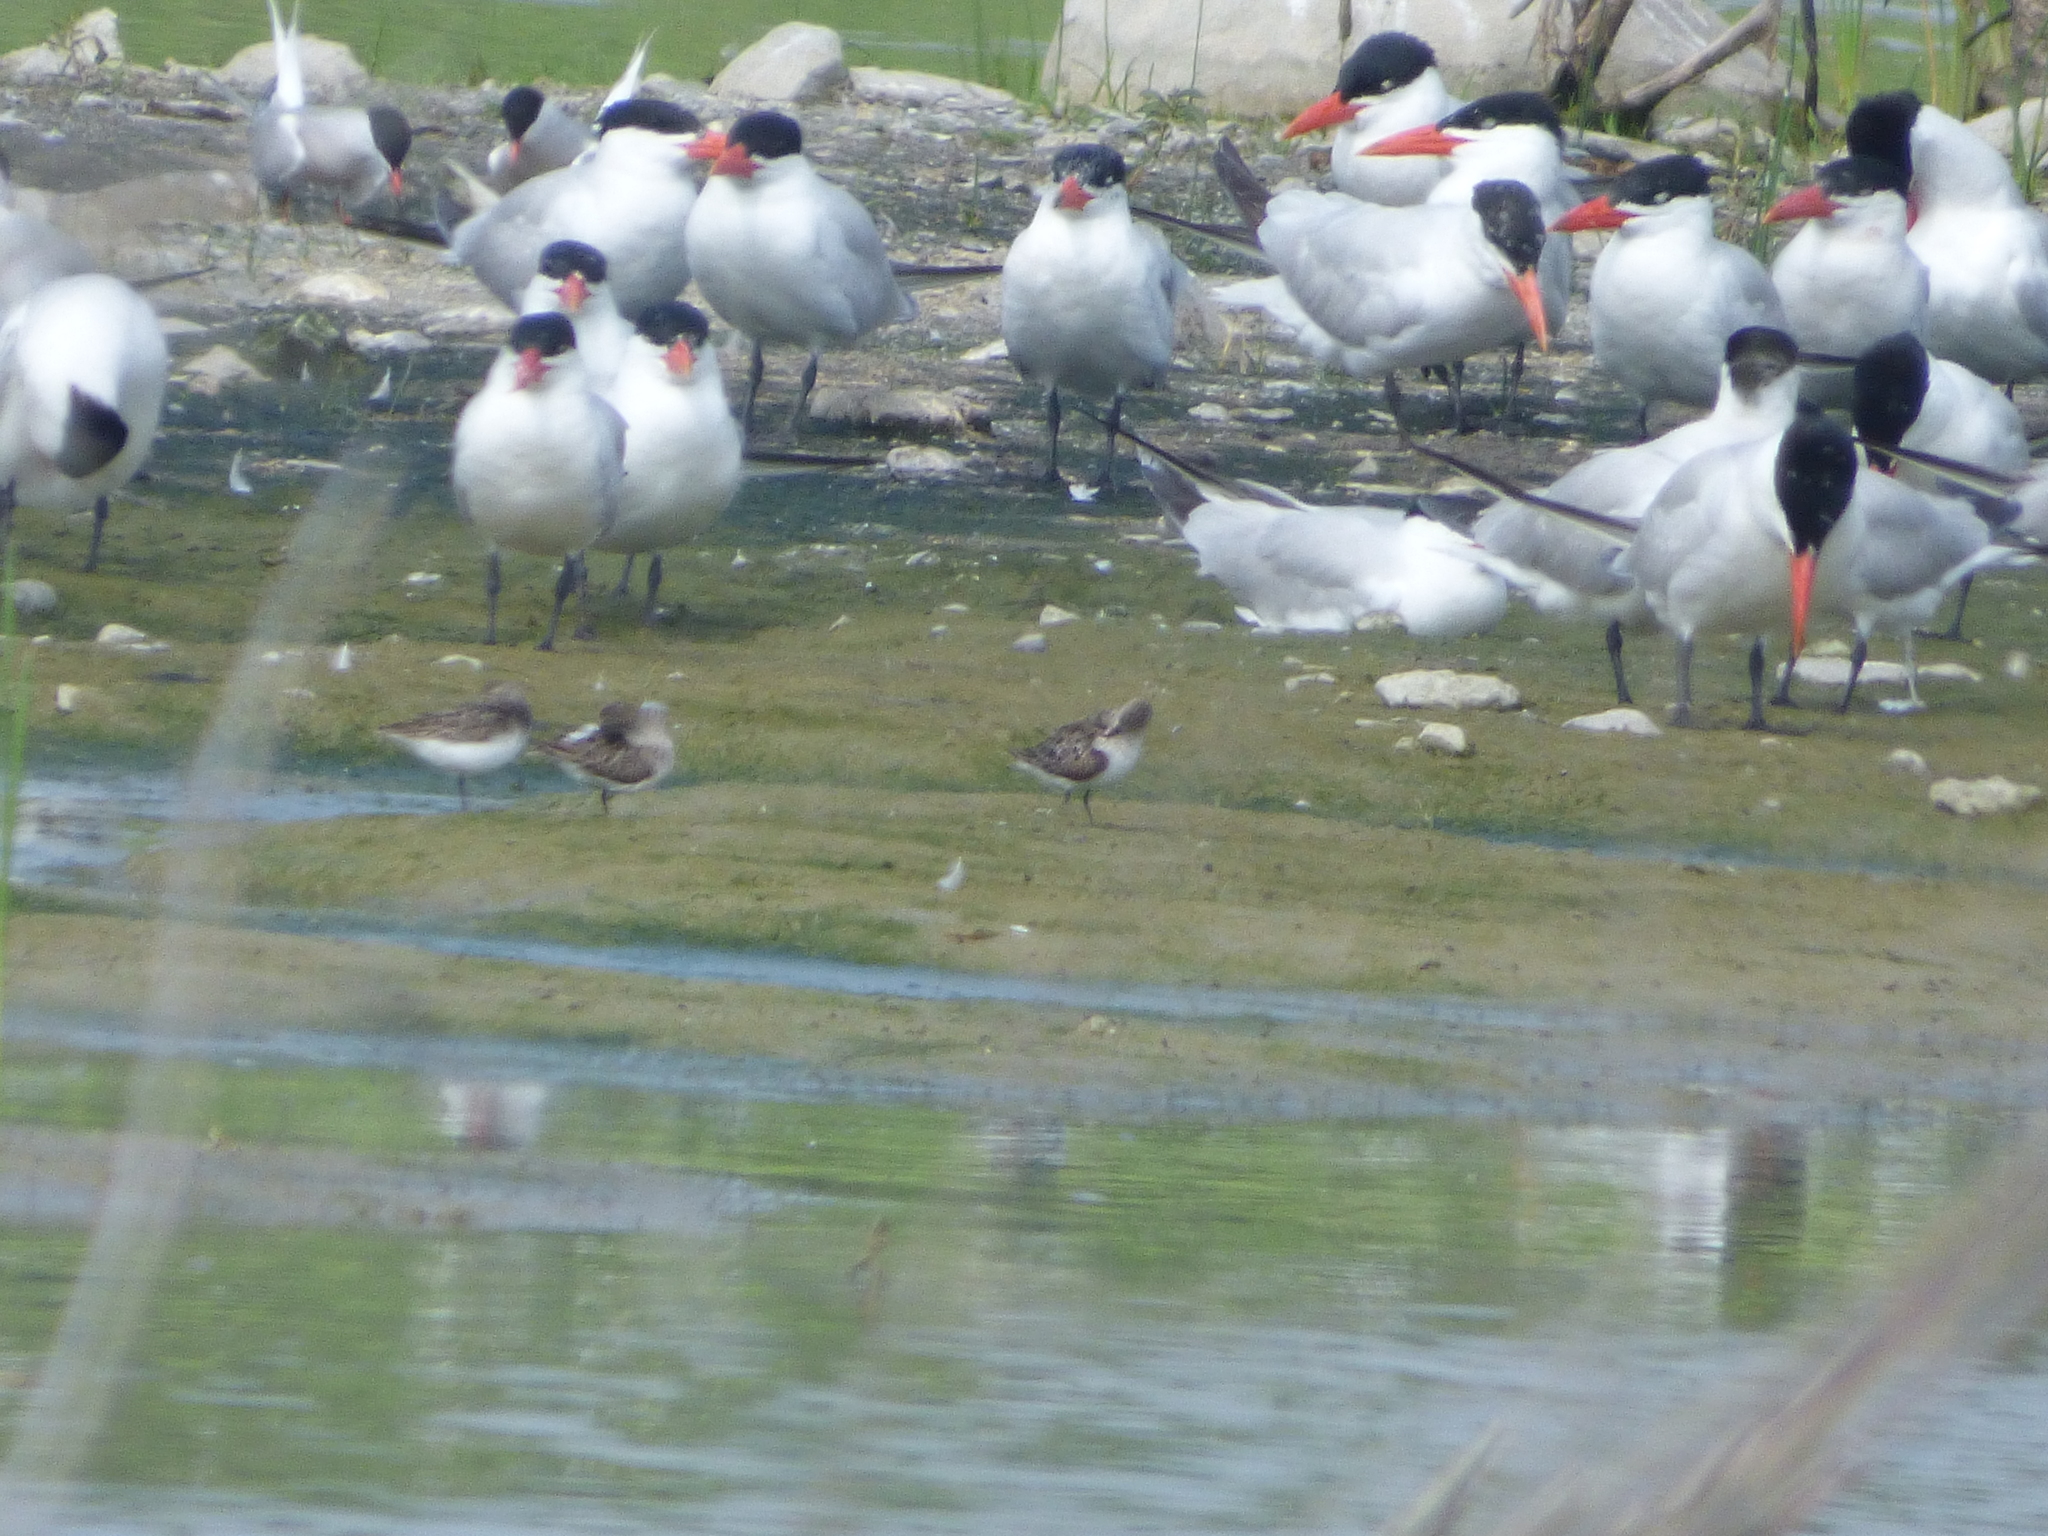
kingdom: Animalia
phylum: Chordata
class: Aves
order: Charadriiformes
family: Laridae
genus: Sterna
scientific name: Sterna hirundo
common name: Common tern
